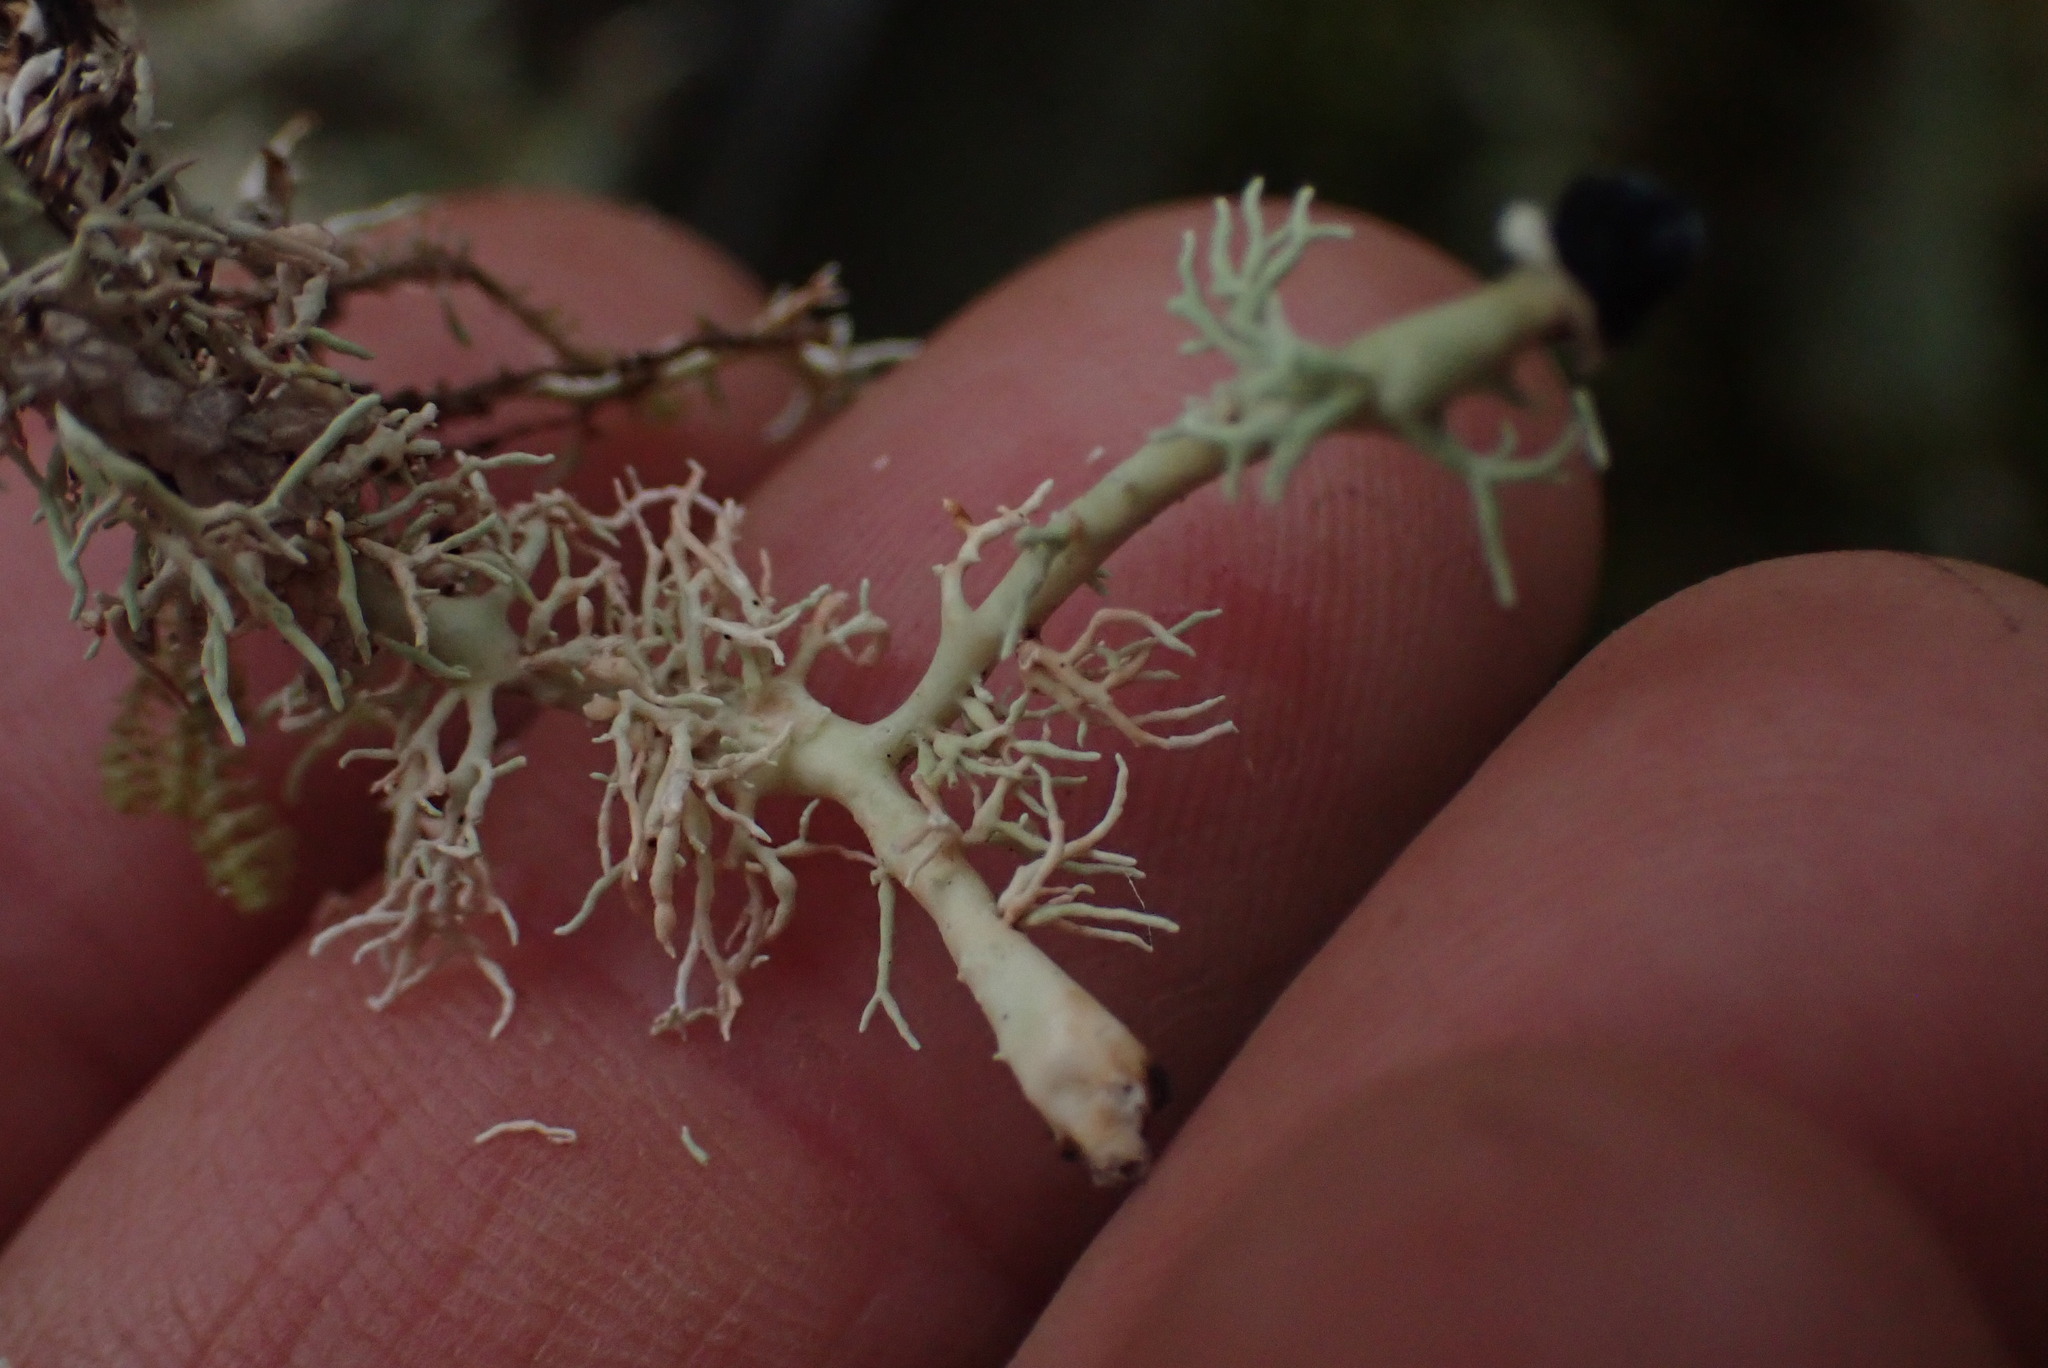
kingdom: Fungi
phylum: Ascomycota
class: Lecanoromycetes
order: Lecanorales
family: Sphaerophoraceae
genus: Bunodophoron
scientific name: Bunodophoron melanocarpum
